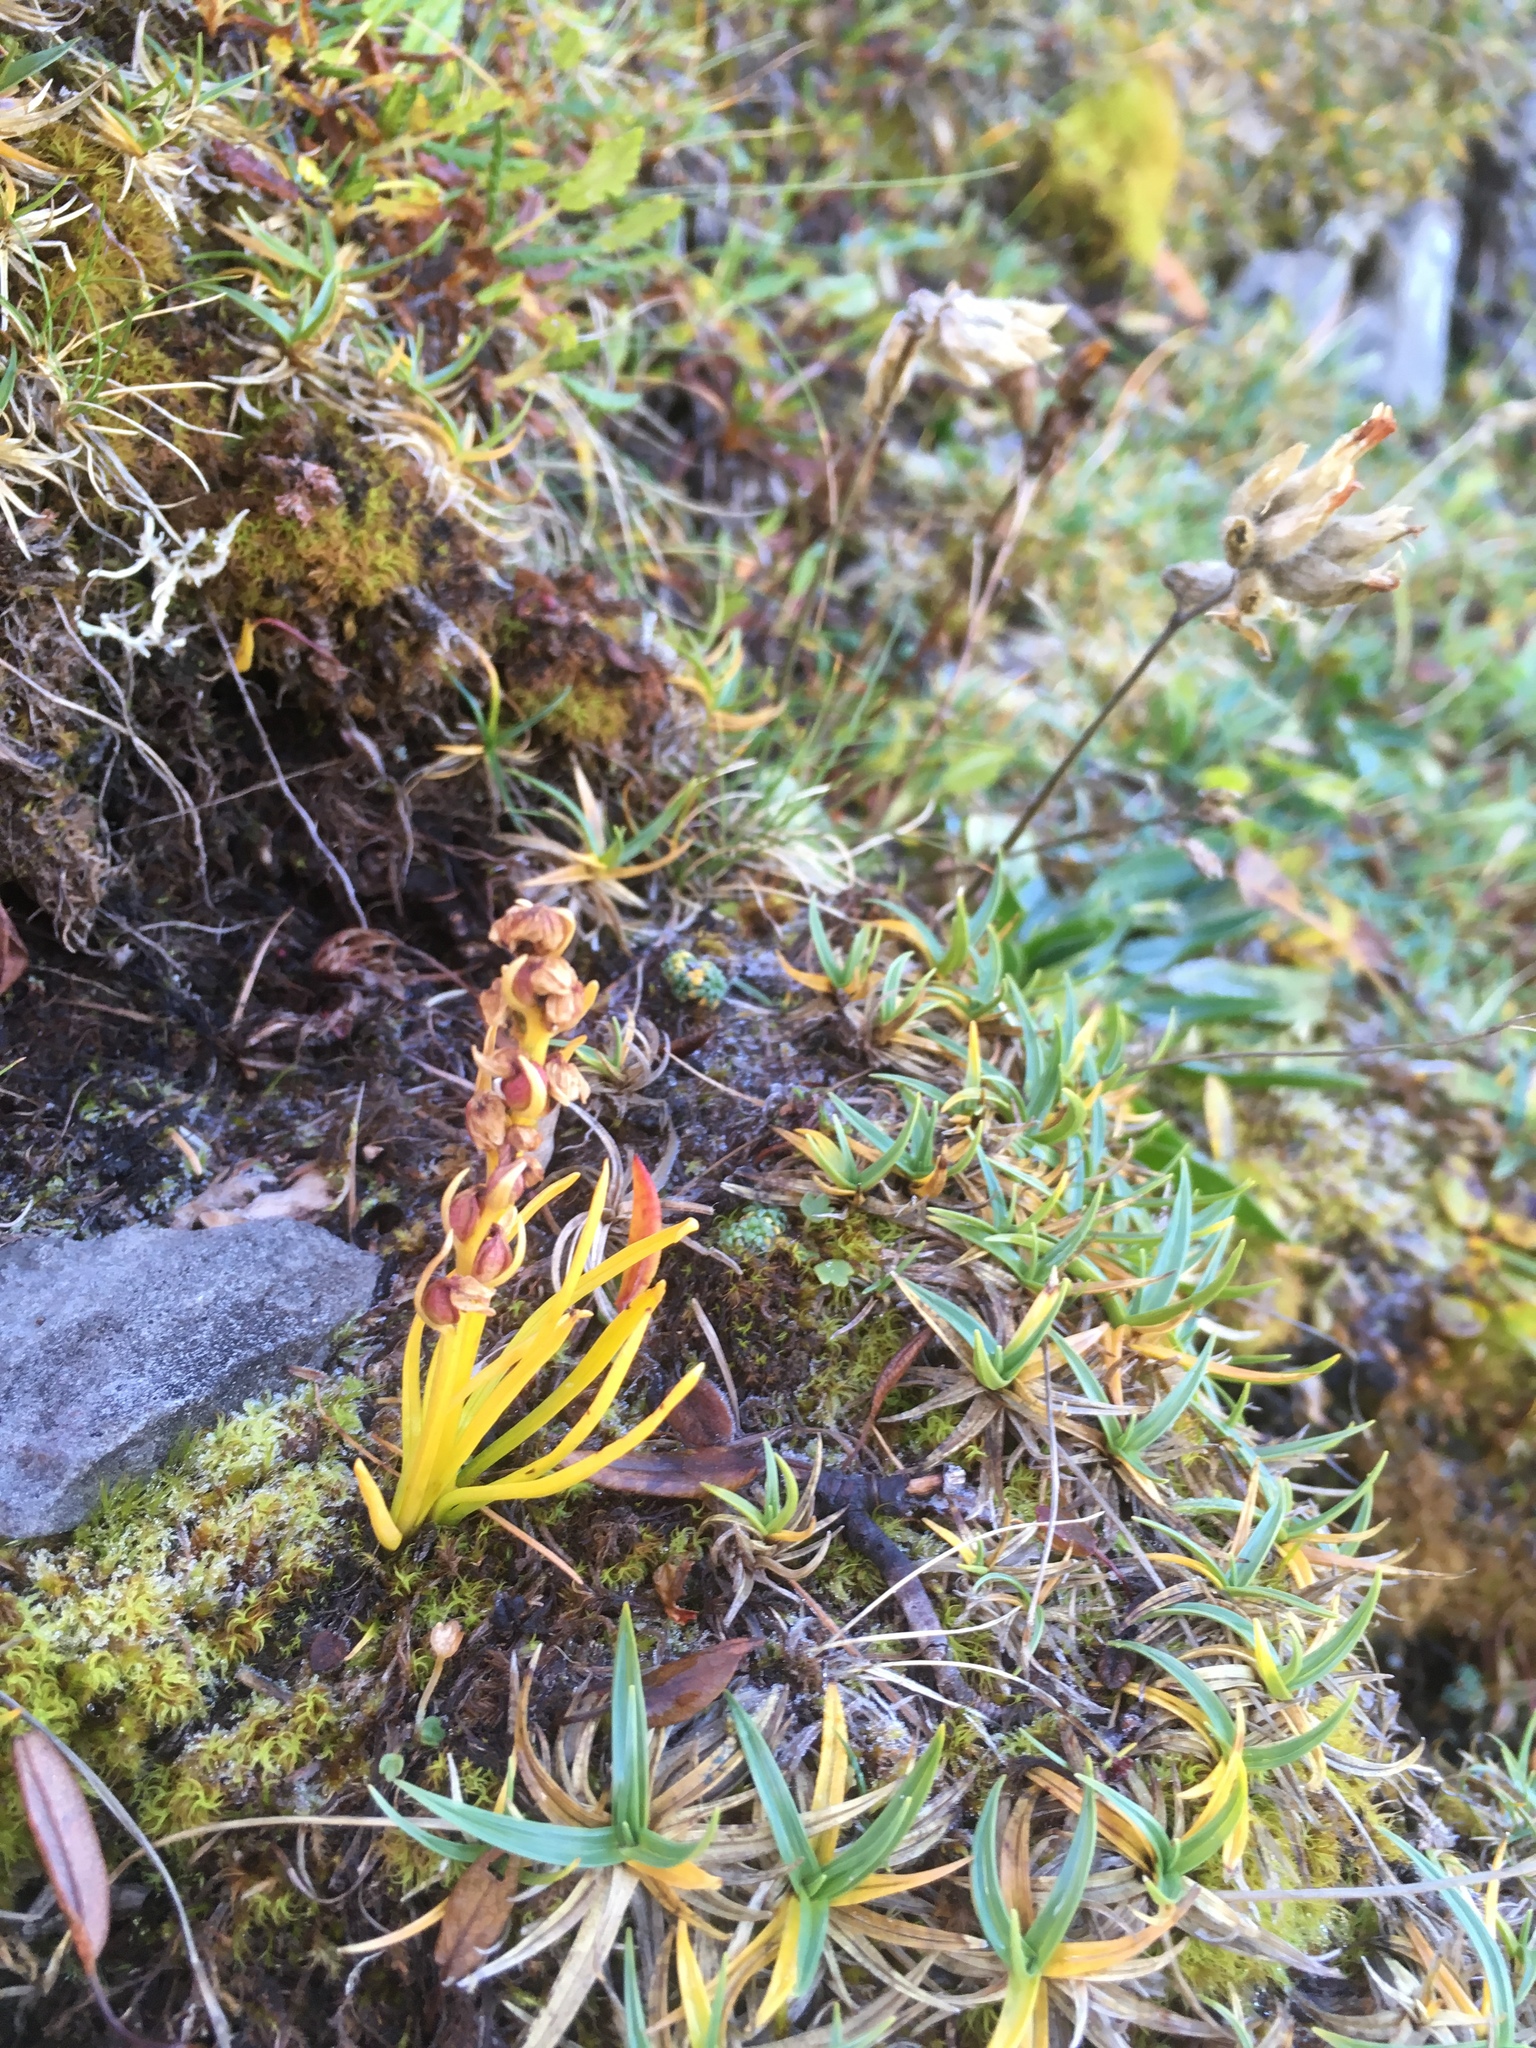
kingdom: Plantae
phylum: Tracheophyta
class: Liliopsida
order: Asparagales
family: Orchidaceae
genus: Chamorchis
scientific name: Chamorchis alpina
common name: Alpine chamorchis
